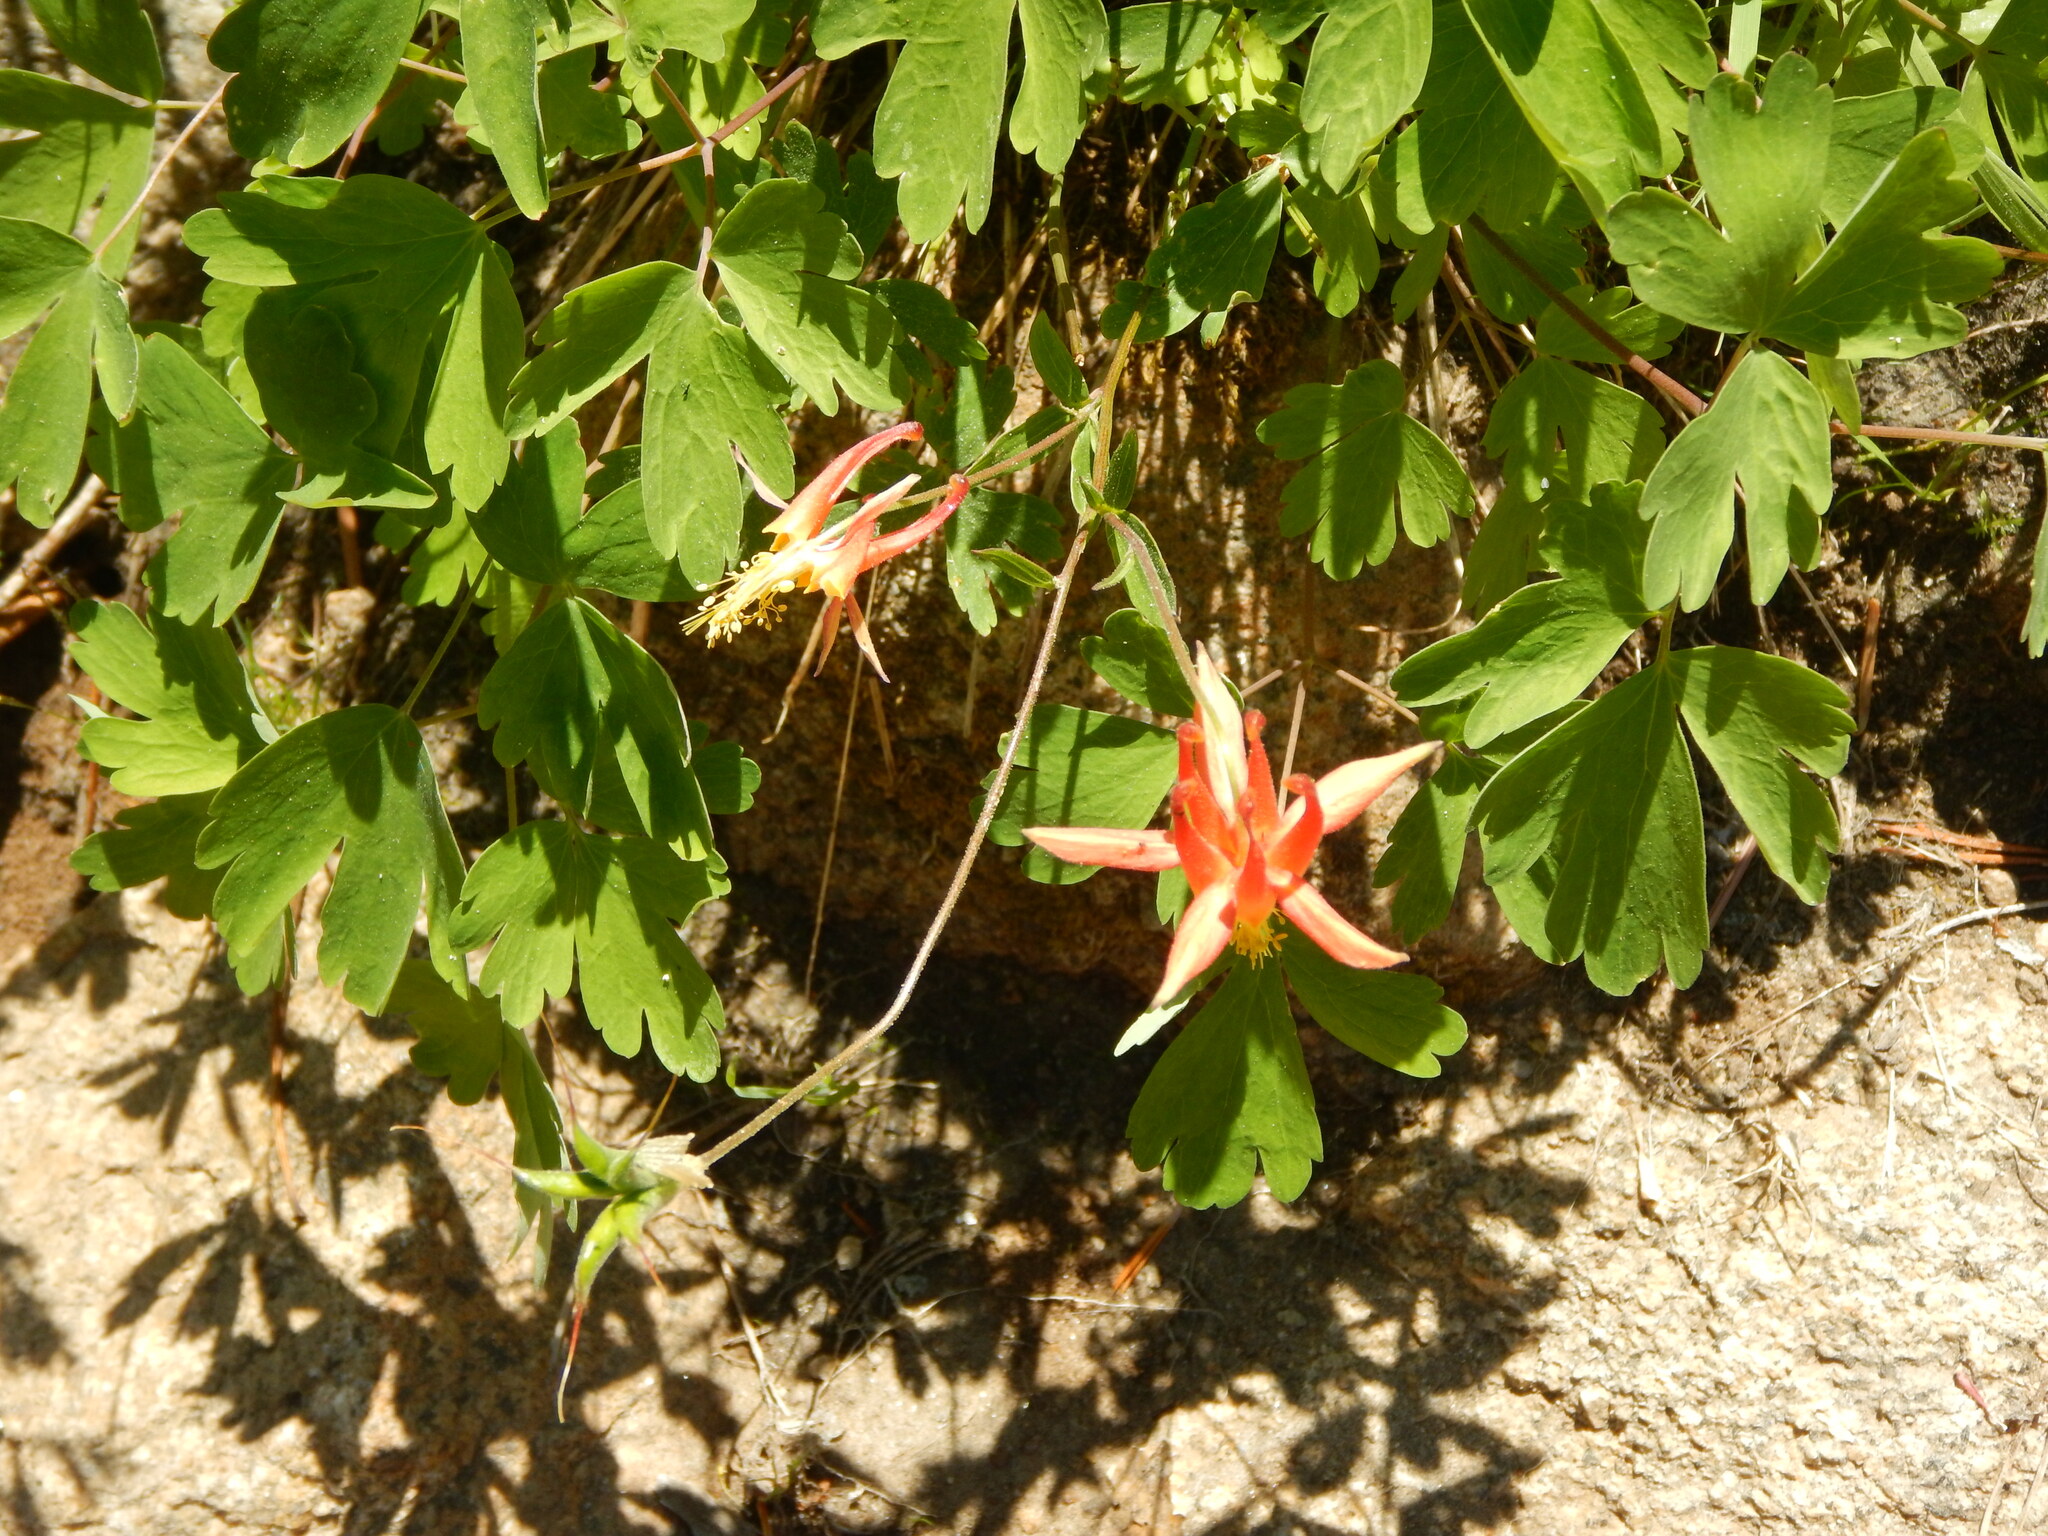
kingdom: Plantae
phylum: Tracheophyta
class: Magnoliopsida
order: Ranunculales
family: Ranunculaceae
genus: Aquilegia
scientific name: Aquilegia formosa
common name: Sitka columbine
